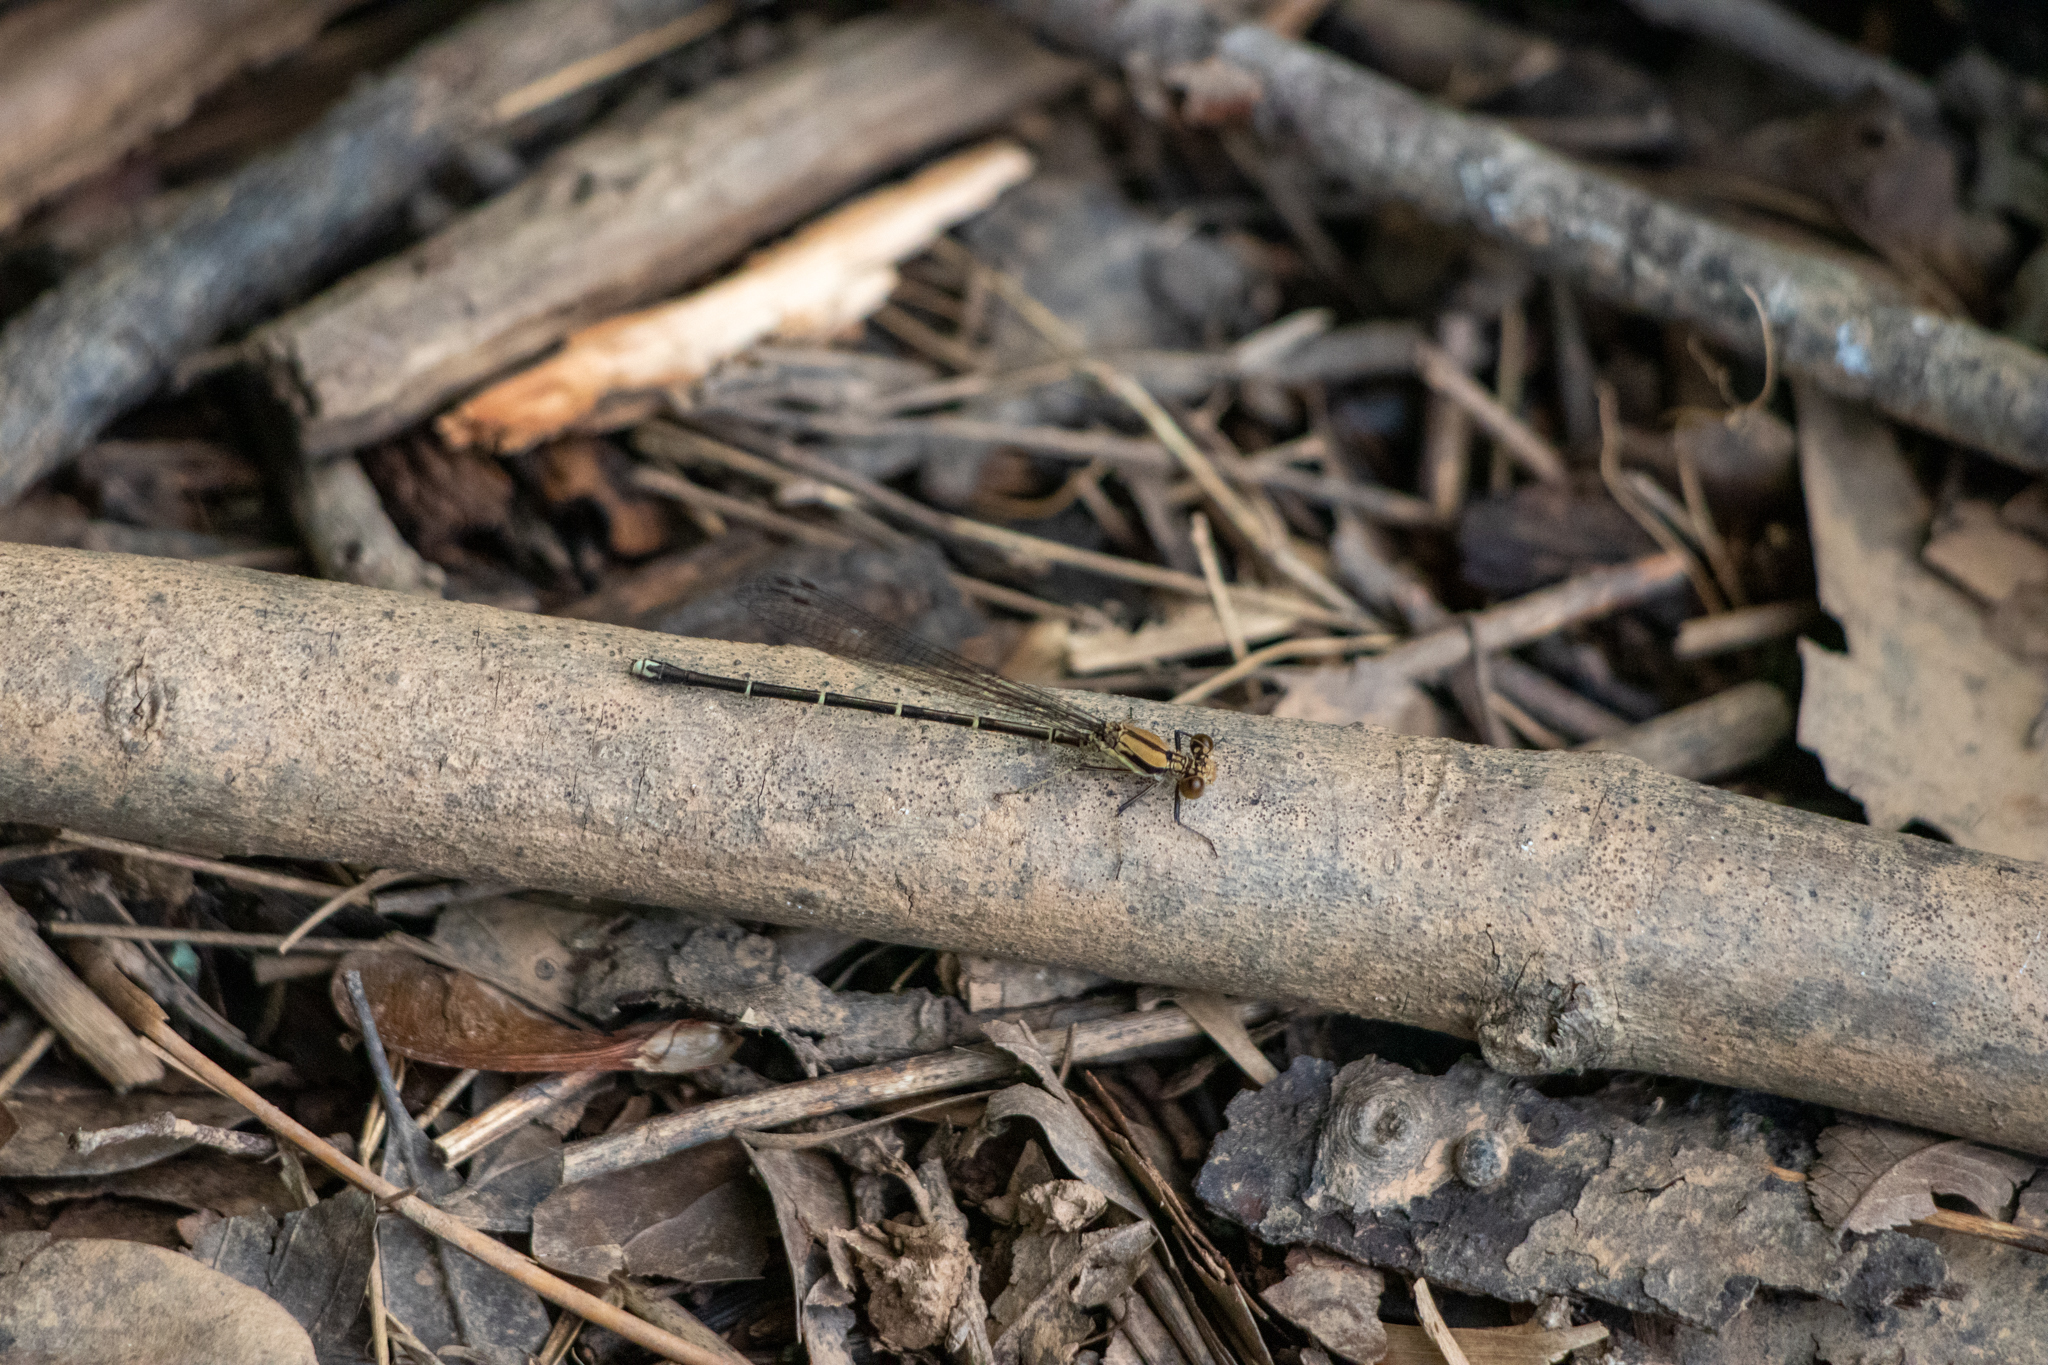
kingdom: Animalia
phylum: Arthropoda
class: Insecta
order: Odonata
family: Coenagrionidae
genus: Argia
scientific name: Argia tibialis
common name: Blue-tipped dancer
